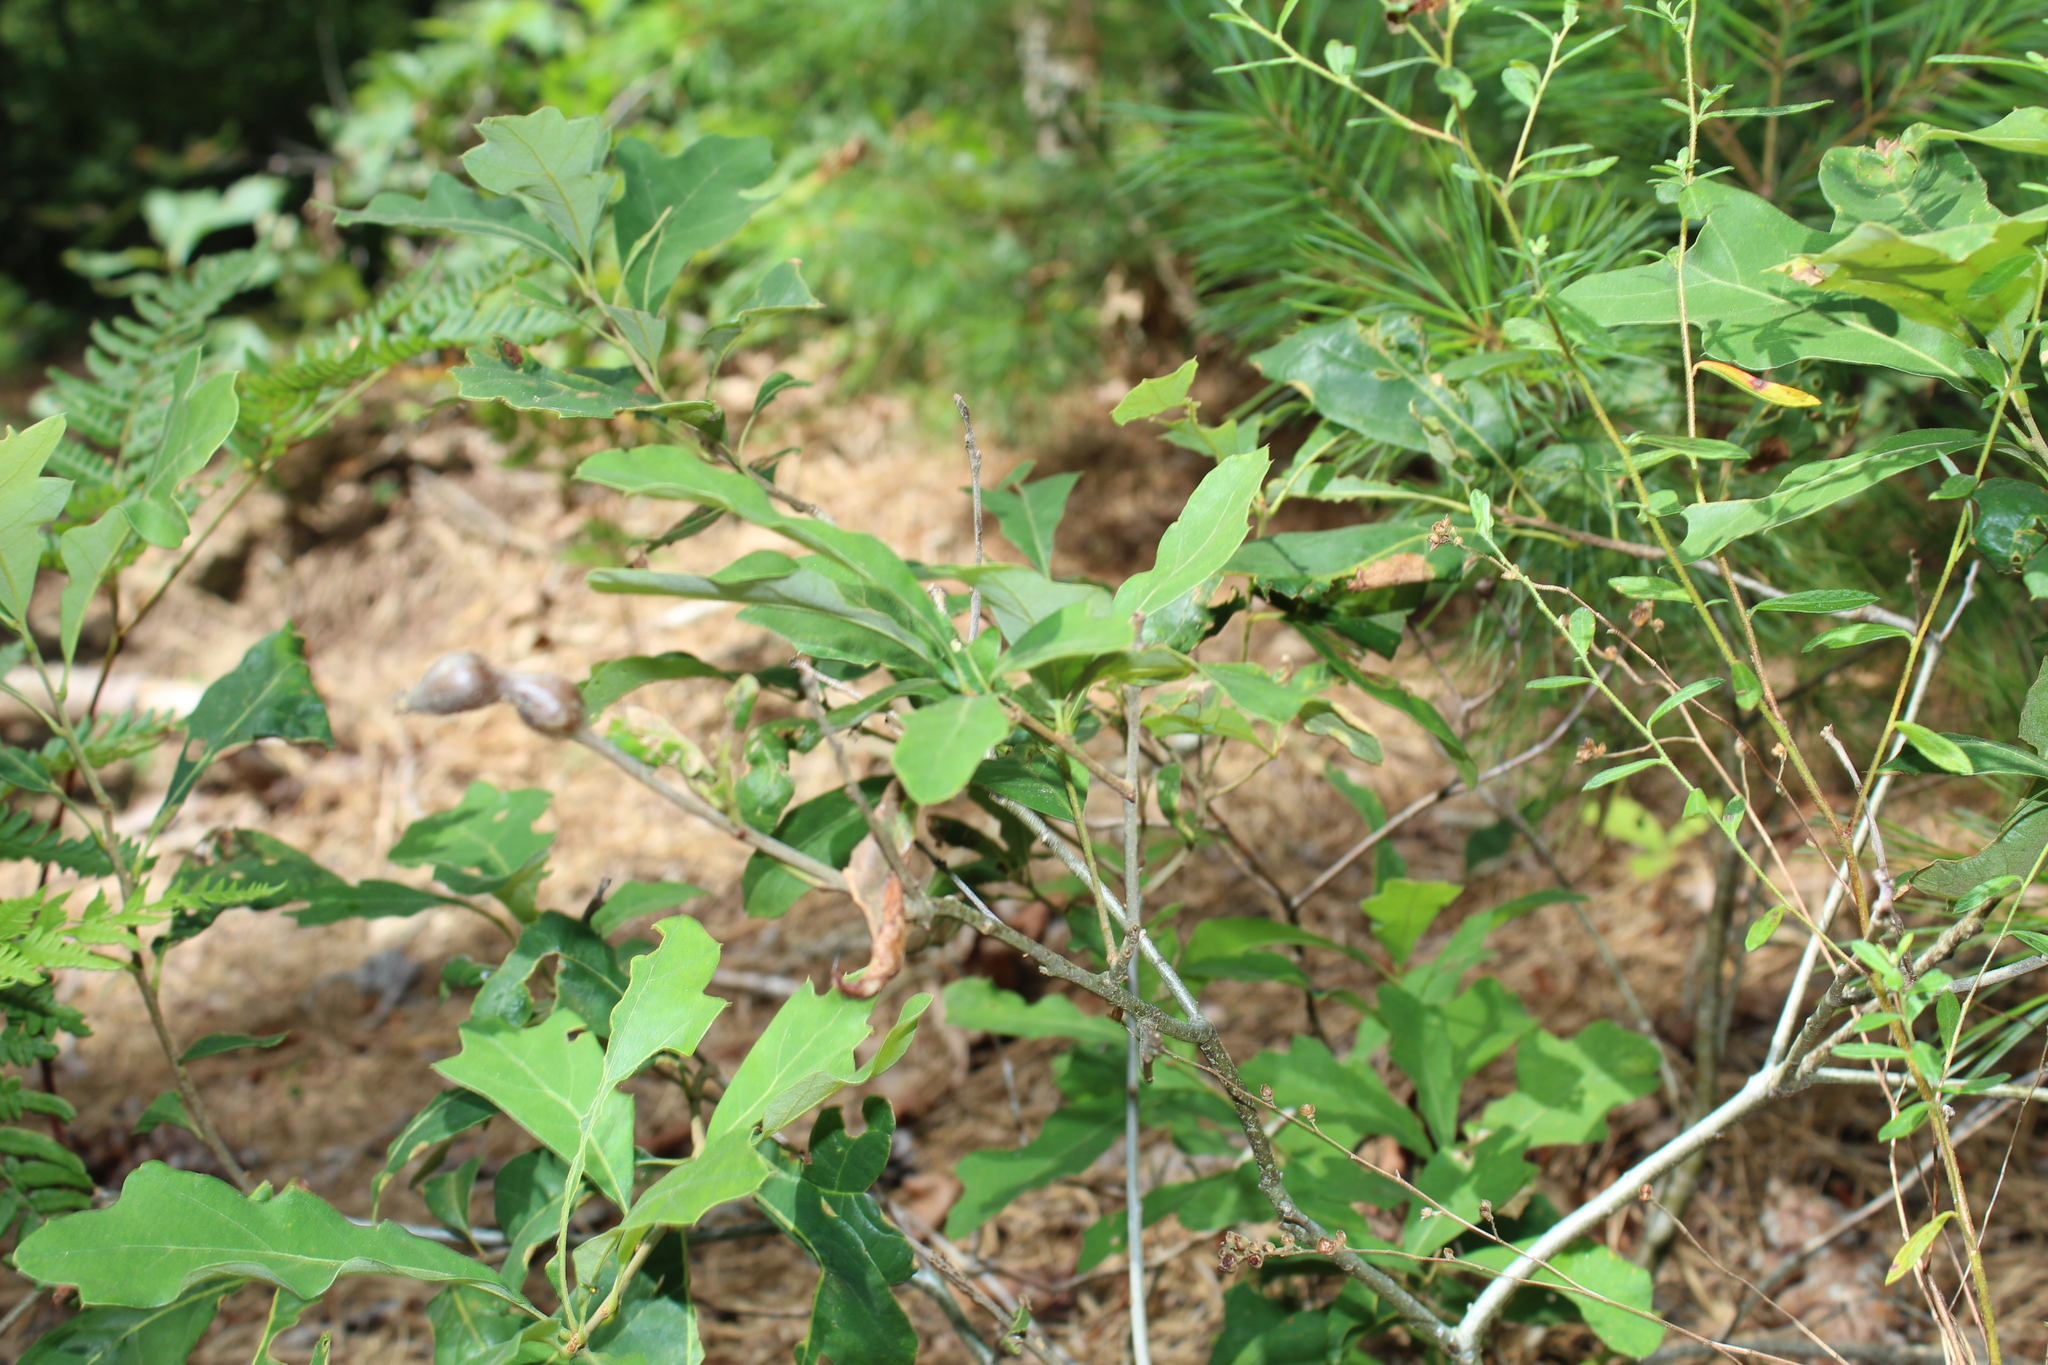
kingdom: Plantae
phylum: Tracheophyta
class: Magnoliopsida
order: Fagales
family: Fagaceae
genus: Quercus
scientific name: Quercus ilicifolia
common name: Bear oak
